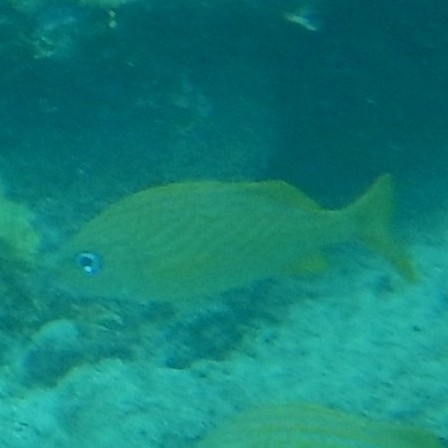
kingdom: Animalia
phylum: Chordata
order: Perciformes
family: Haemulidae
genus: Haemulon
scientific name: Haemulon flavolineatum
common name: French grunt
